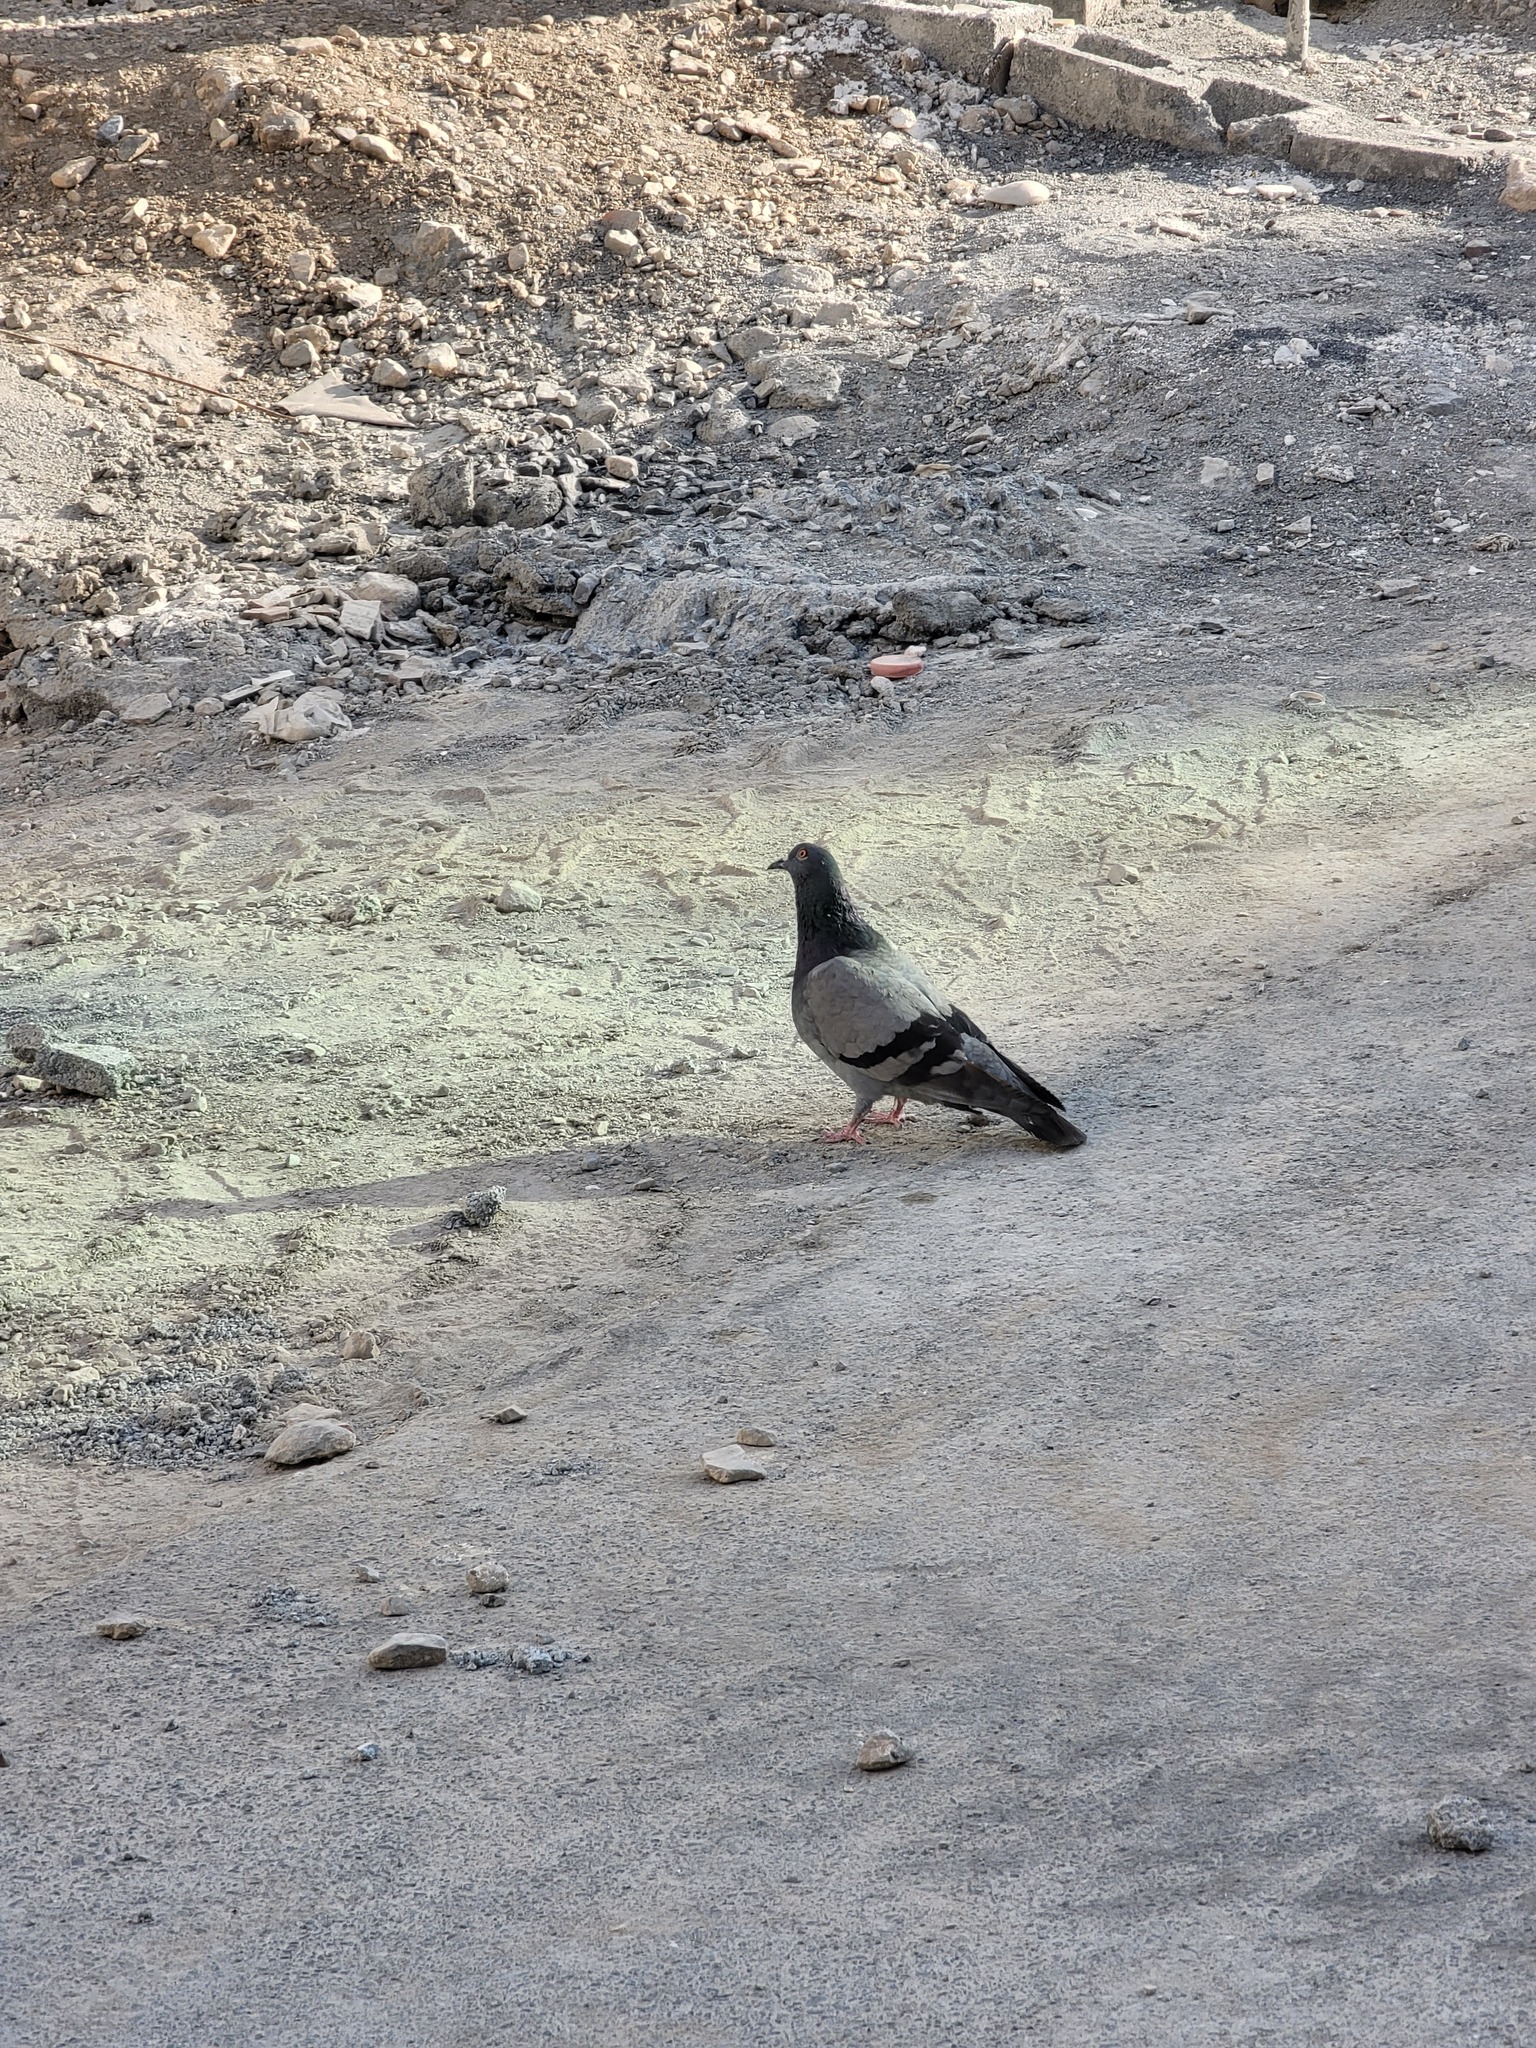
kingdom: Animalia
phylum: Chordata
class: Aves
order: Columbiformes
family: Columbidae
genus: Columba
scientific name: Columba livia
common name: Rock pigeon
